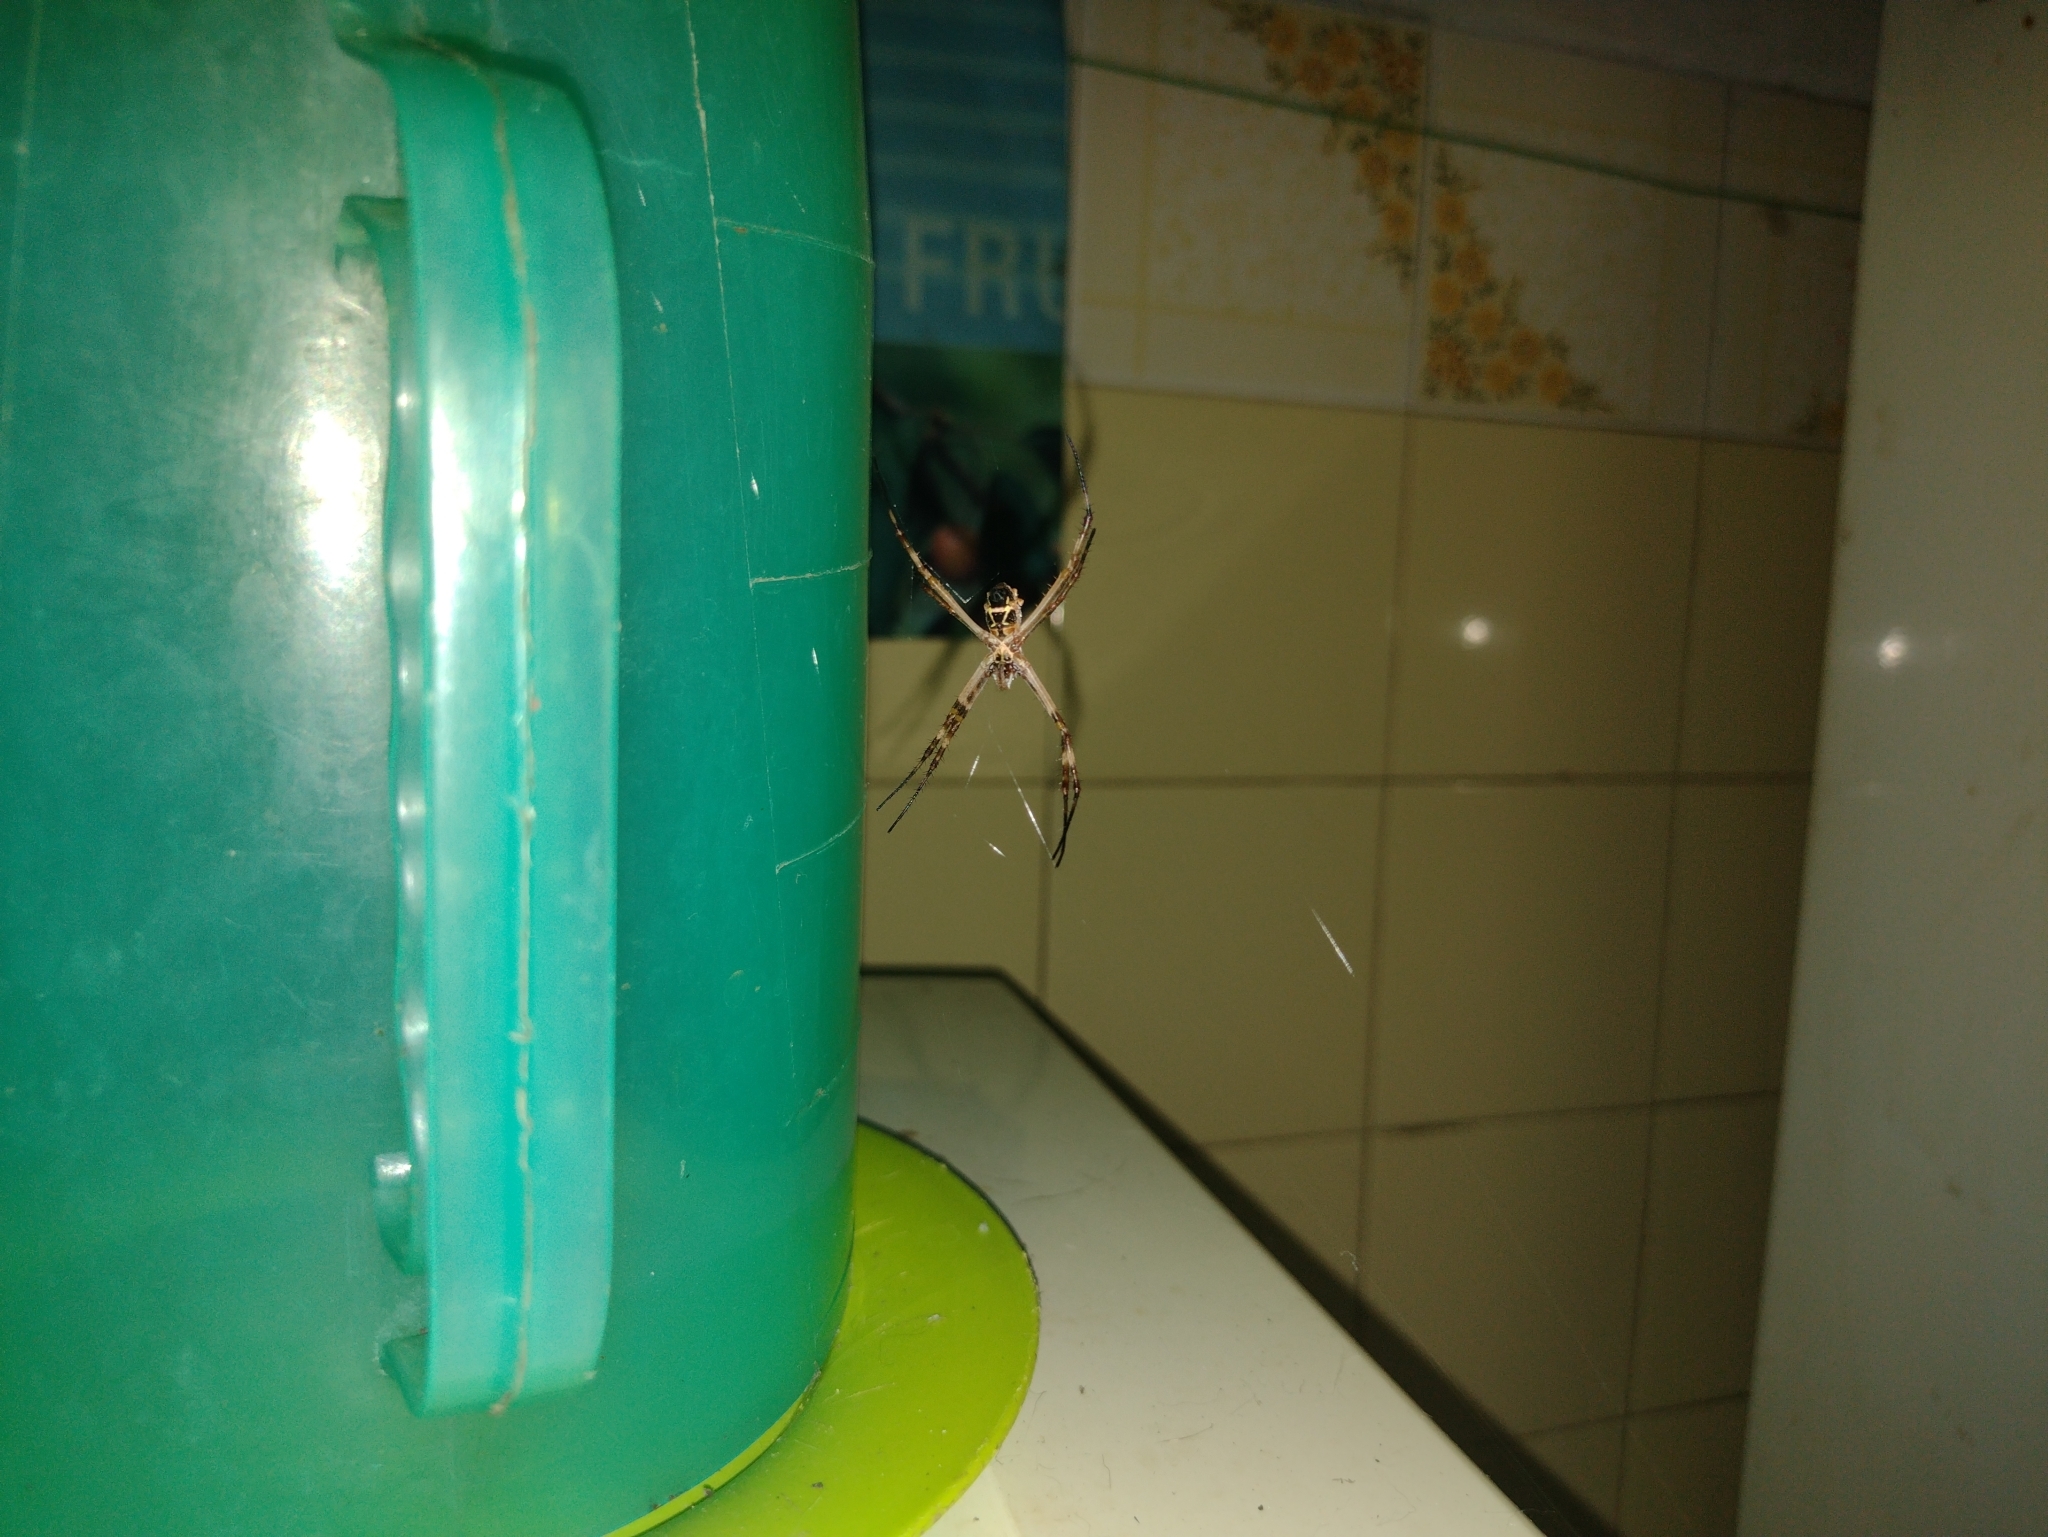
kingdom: Animalia
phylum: Arthropoda
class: Arachnida
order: Araneae
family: Araneidae
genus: Argiope
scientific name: Argiope argentata
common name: Orb weavers
